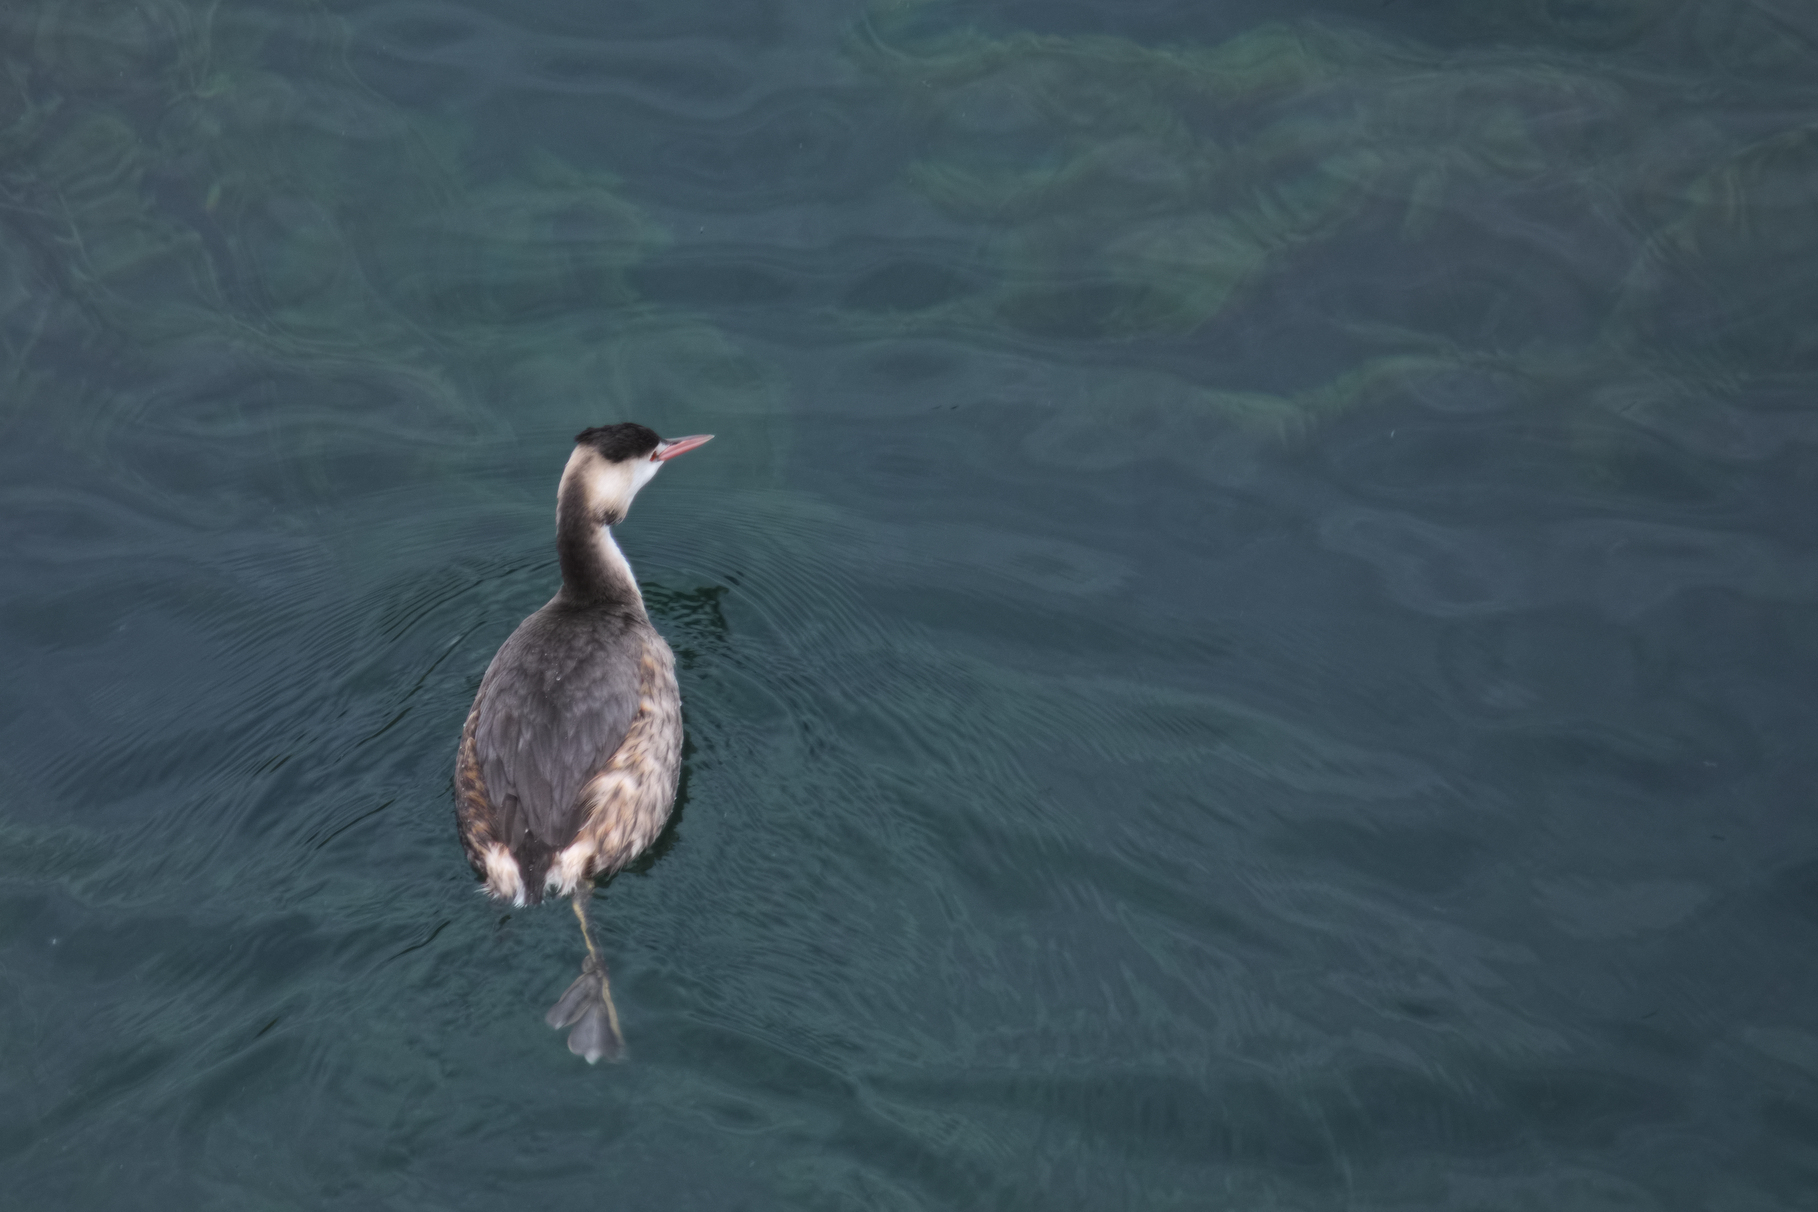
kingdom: Animalia
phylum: Chordata
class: Aves
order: Podicipediformes
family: Podicipedidae
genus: Podiceps
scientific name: Podiceps cristatus
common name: Great crested grebe
